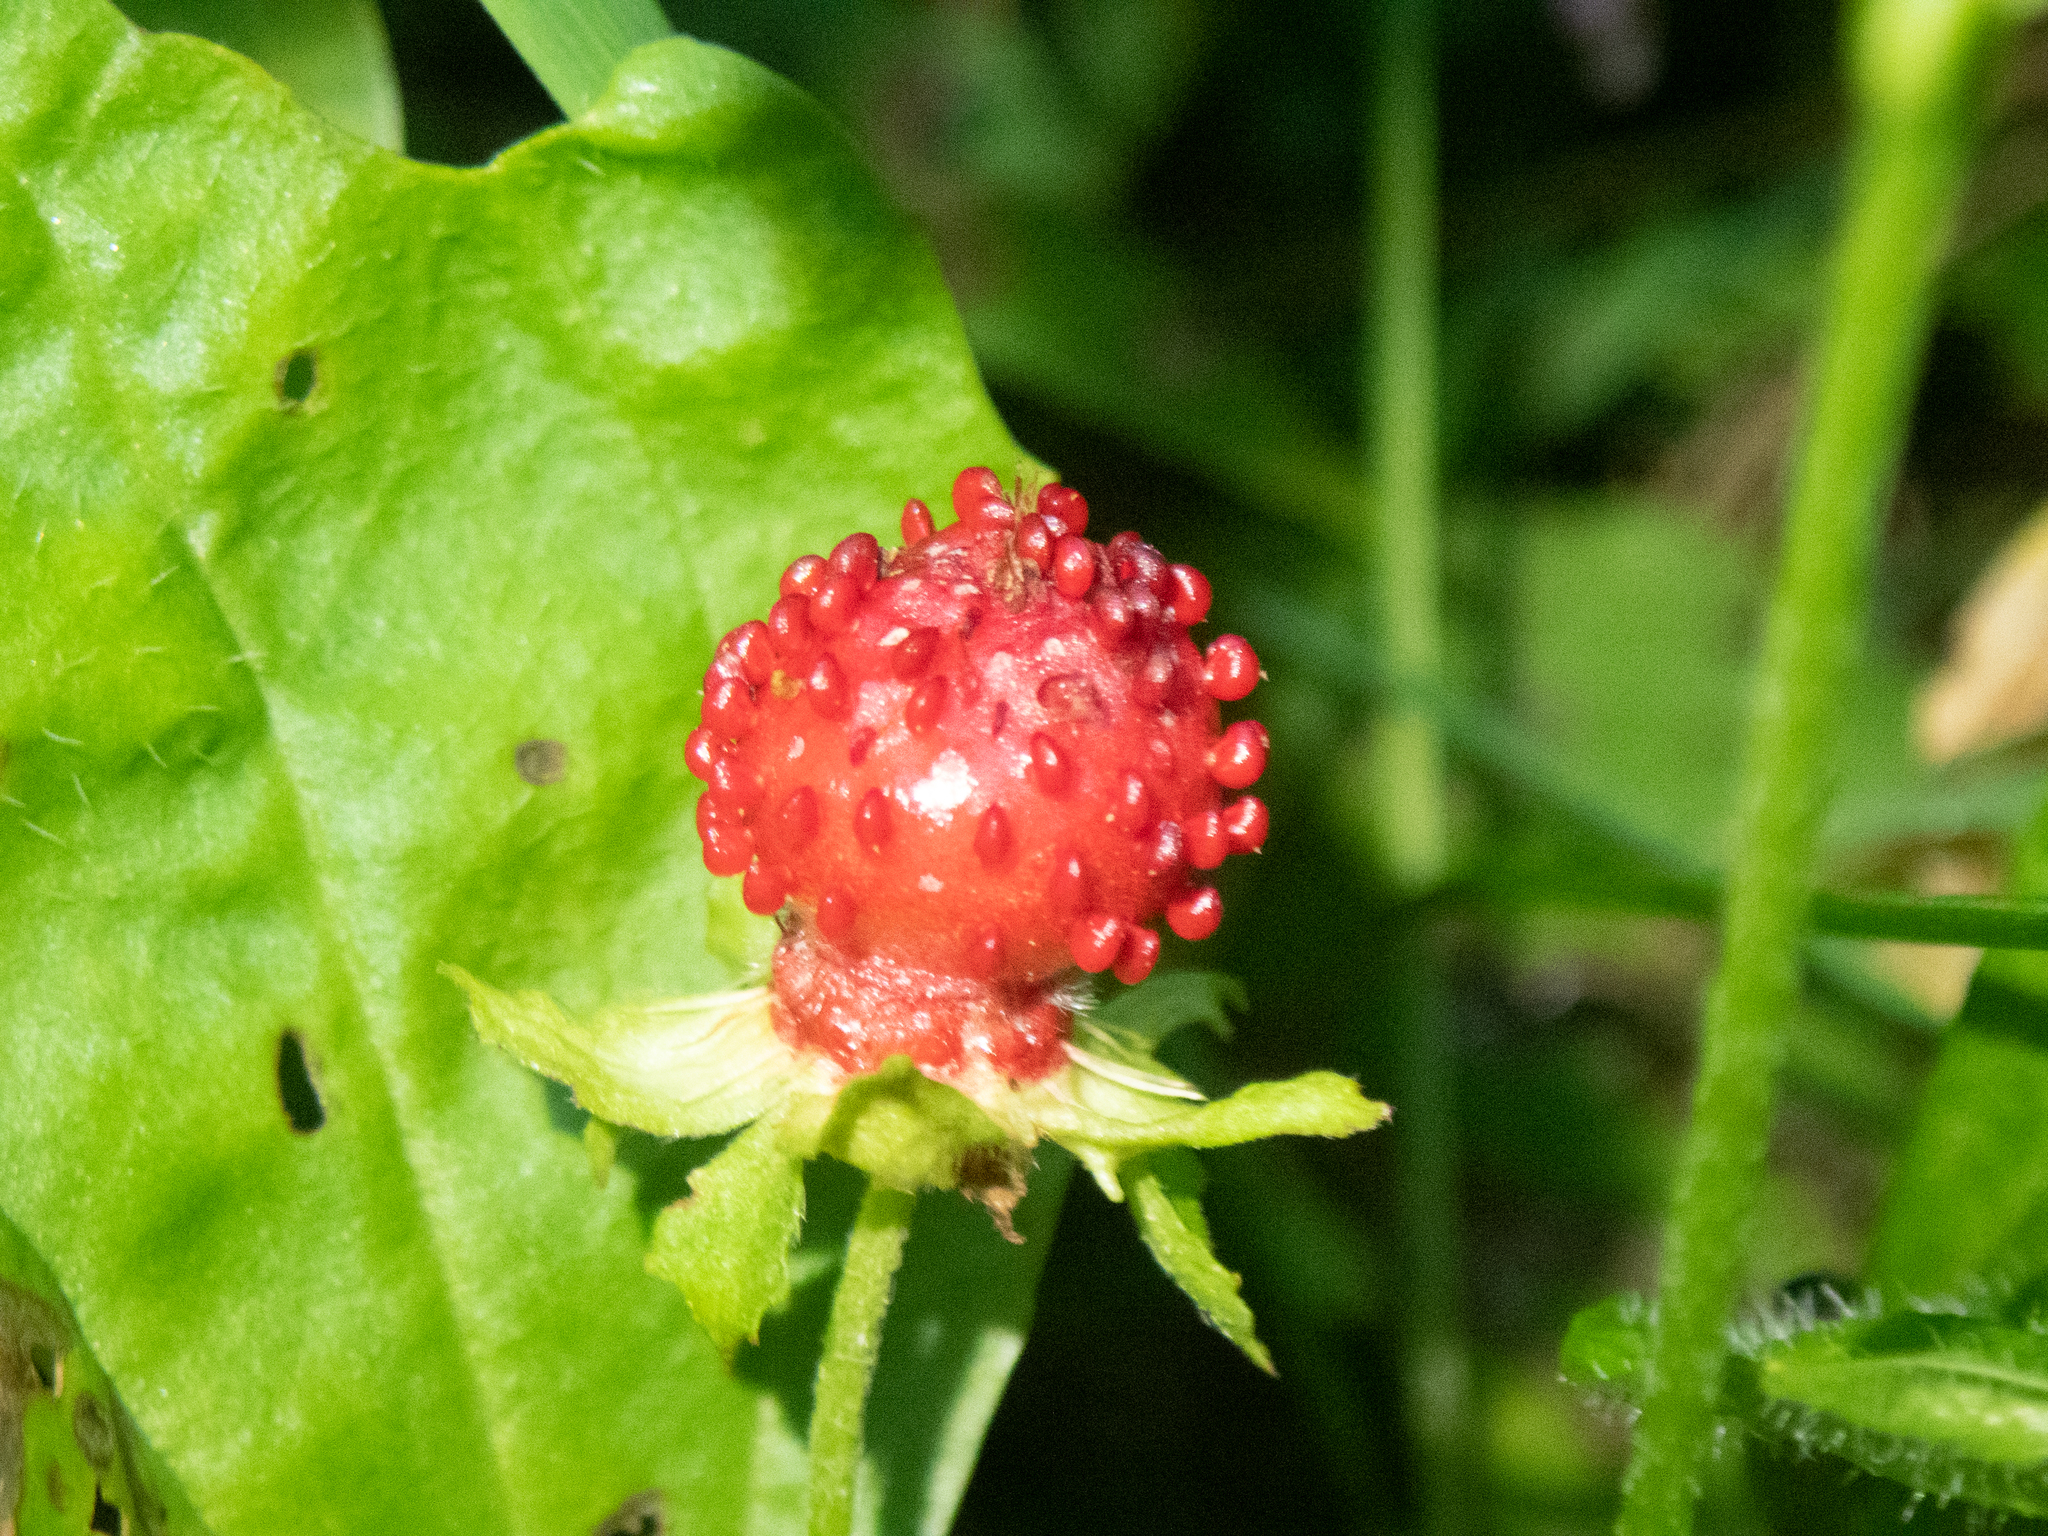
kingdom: Plantae
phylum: Tracheophyta
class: Magnoliopsida
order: Rosales
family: Rosaceae
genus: Potentilla
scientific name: Potentilla indica
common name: Yellow-flowered strawberry
